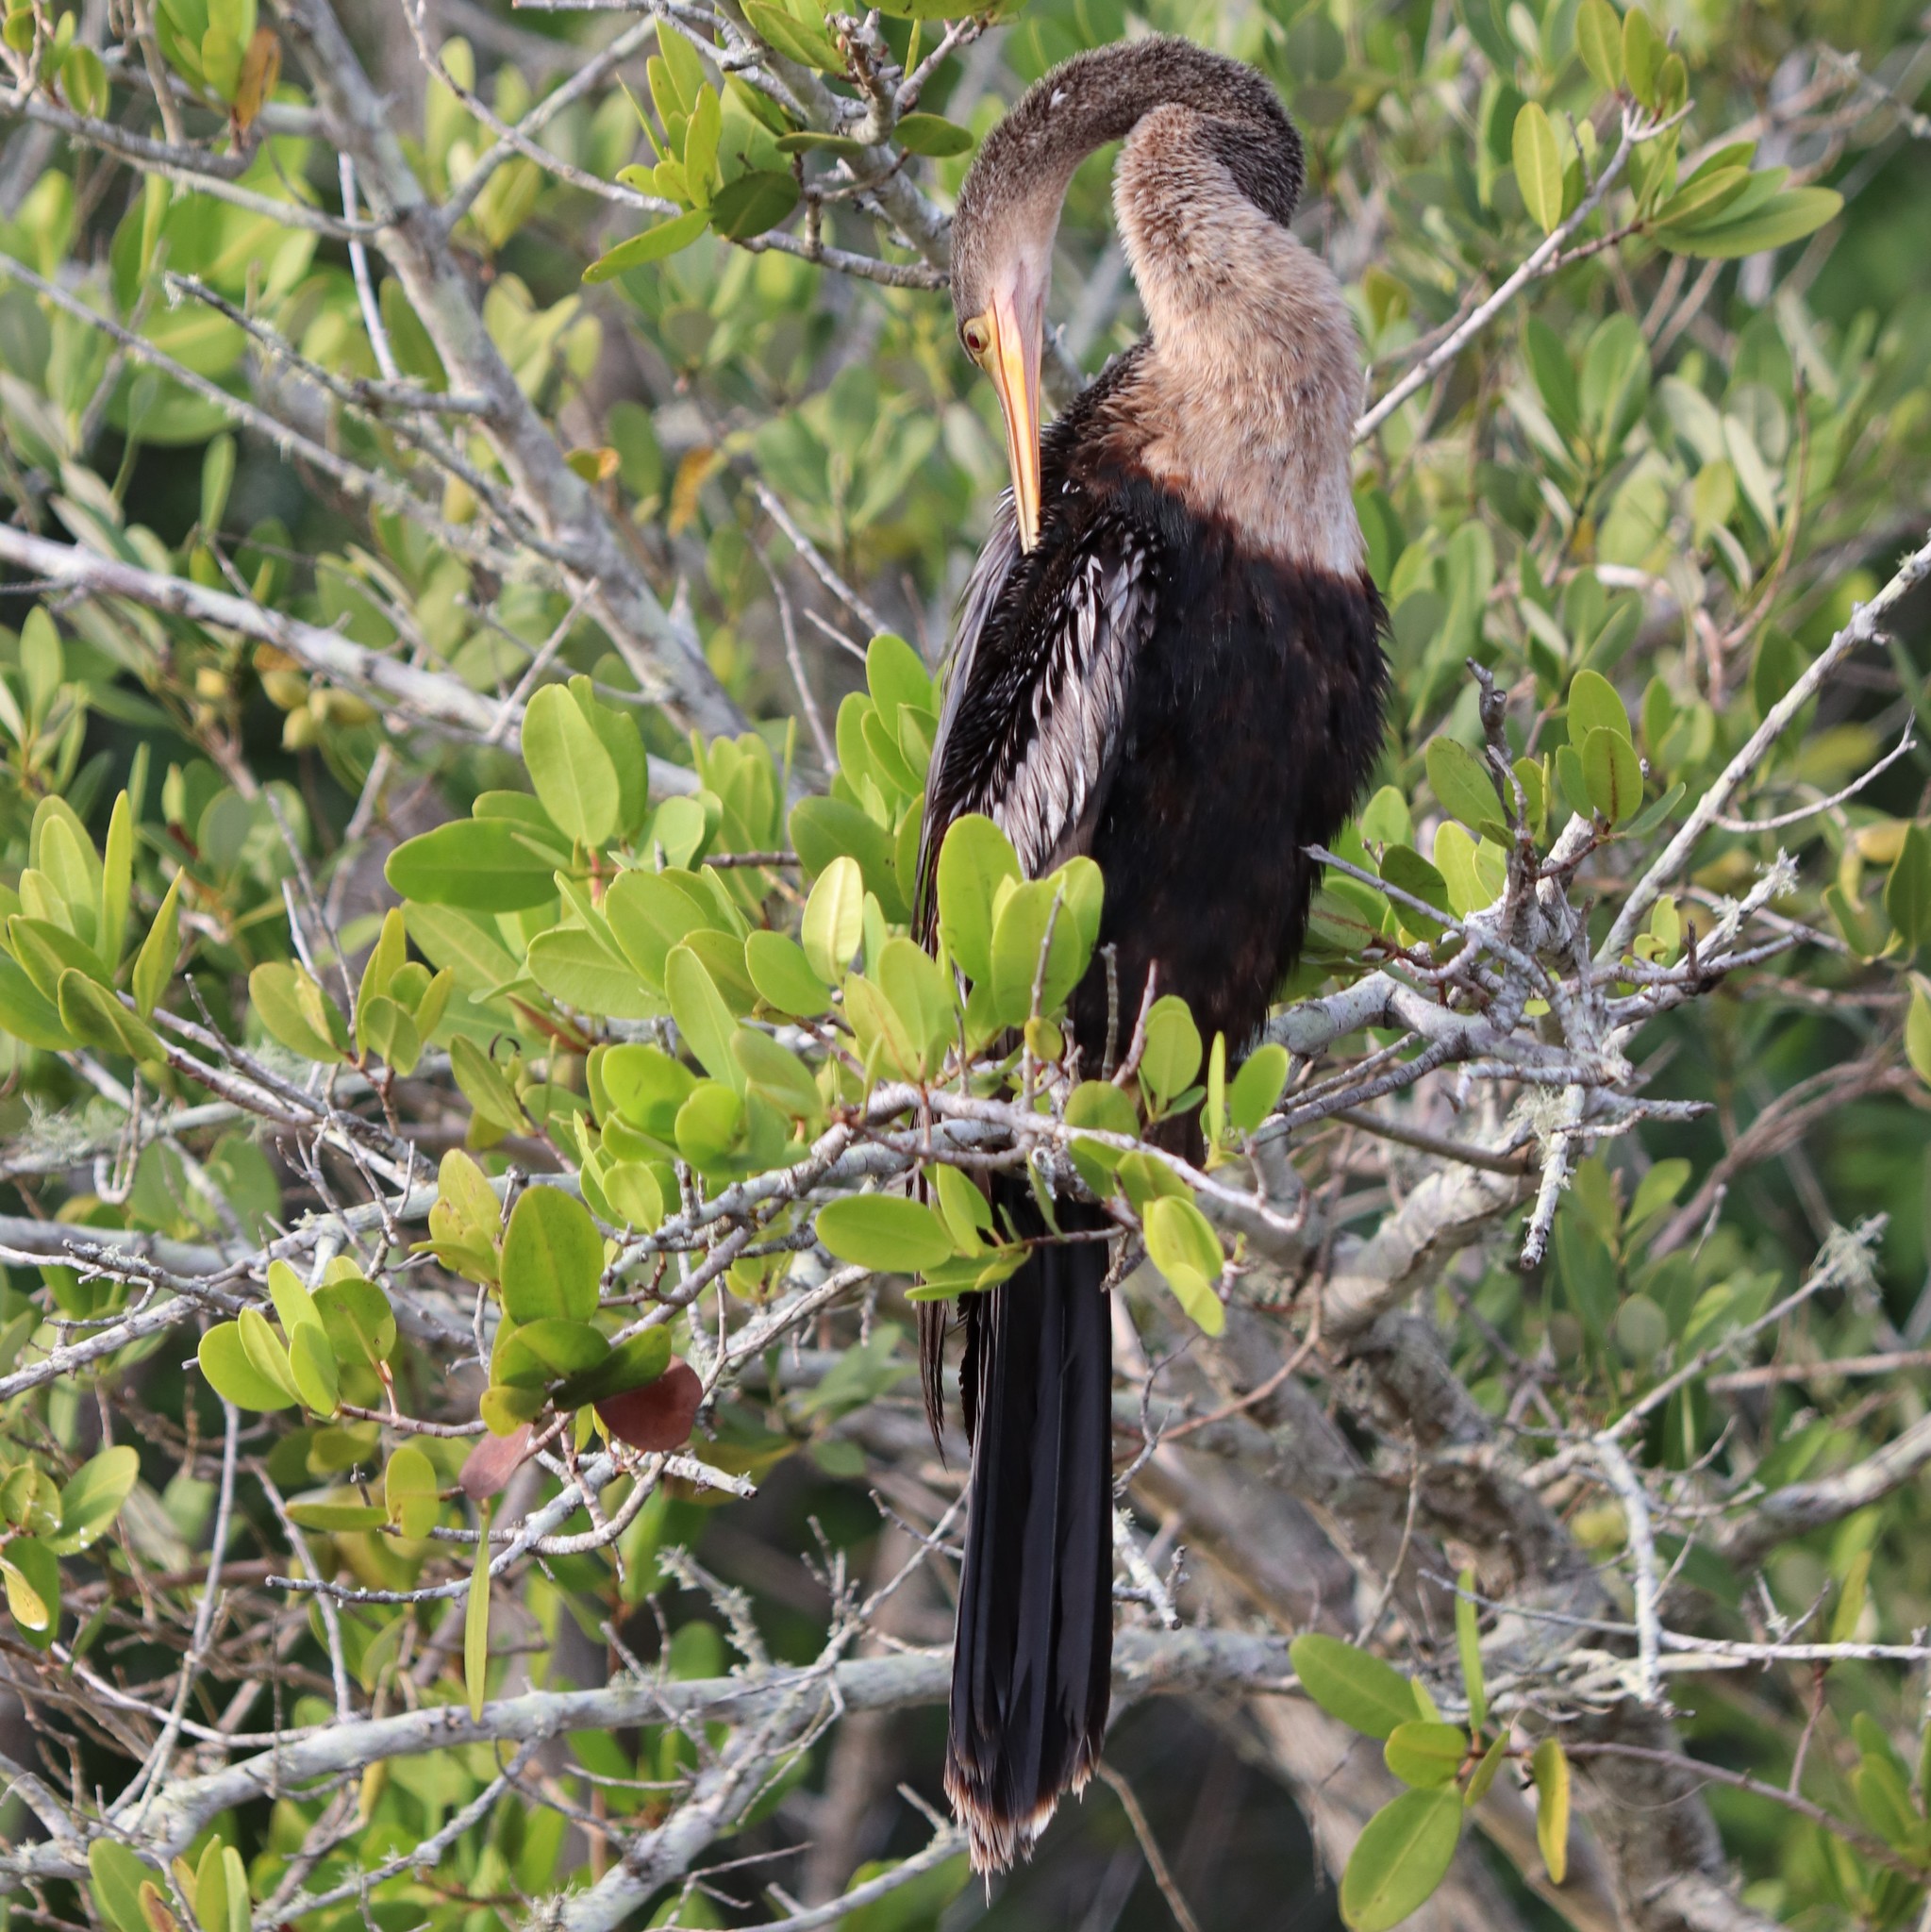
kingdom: Animalia
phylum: Chordata
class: Aves
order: Suliformes
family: Anhingidae
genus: Anhinga
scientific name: Anhinga anhinga
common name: Anhinga
